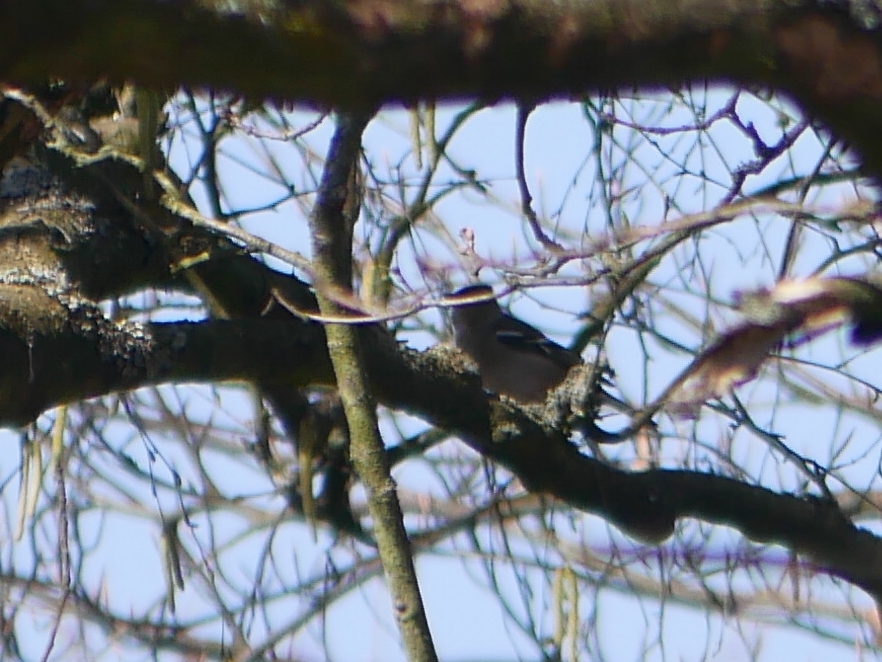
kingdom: Animalia
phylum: Chordata
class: Aves
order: Passeriformes
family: Fringillidae
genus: Fringilla
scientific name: Fringilla coelebs
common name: Common chaffinch
